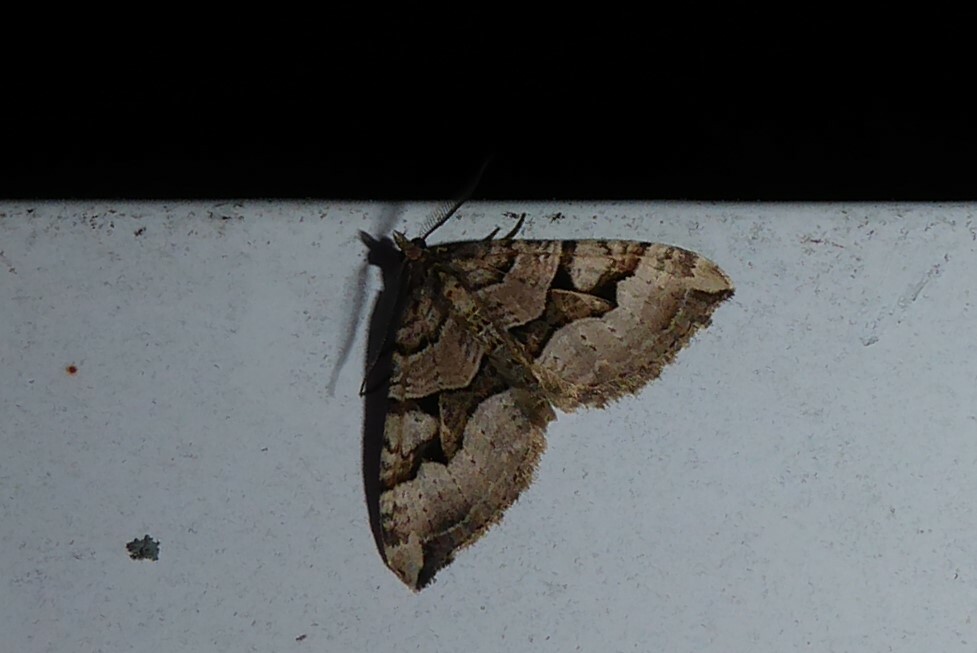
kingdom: Animalia
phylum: Arthropoda
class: Insecta
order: Lepidoptera
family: Geometridae
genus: Xanthorhoe
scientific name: Xanthorhoe semifissata
